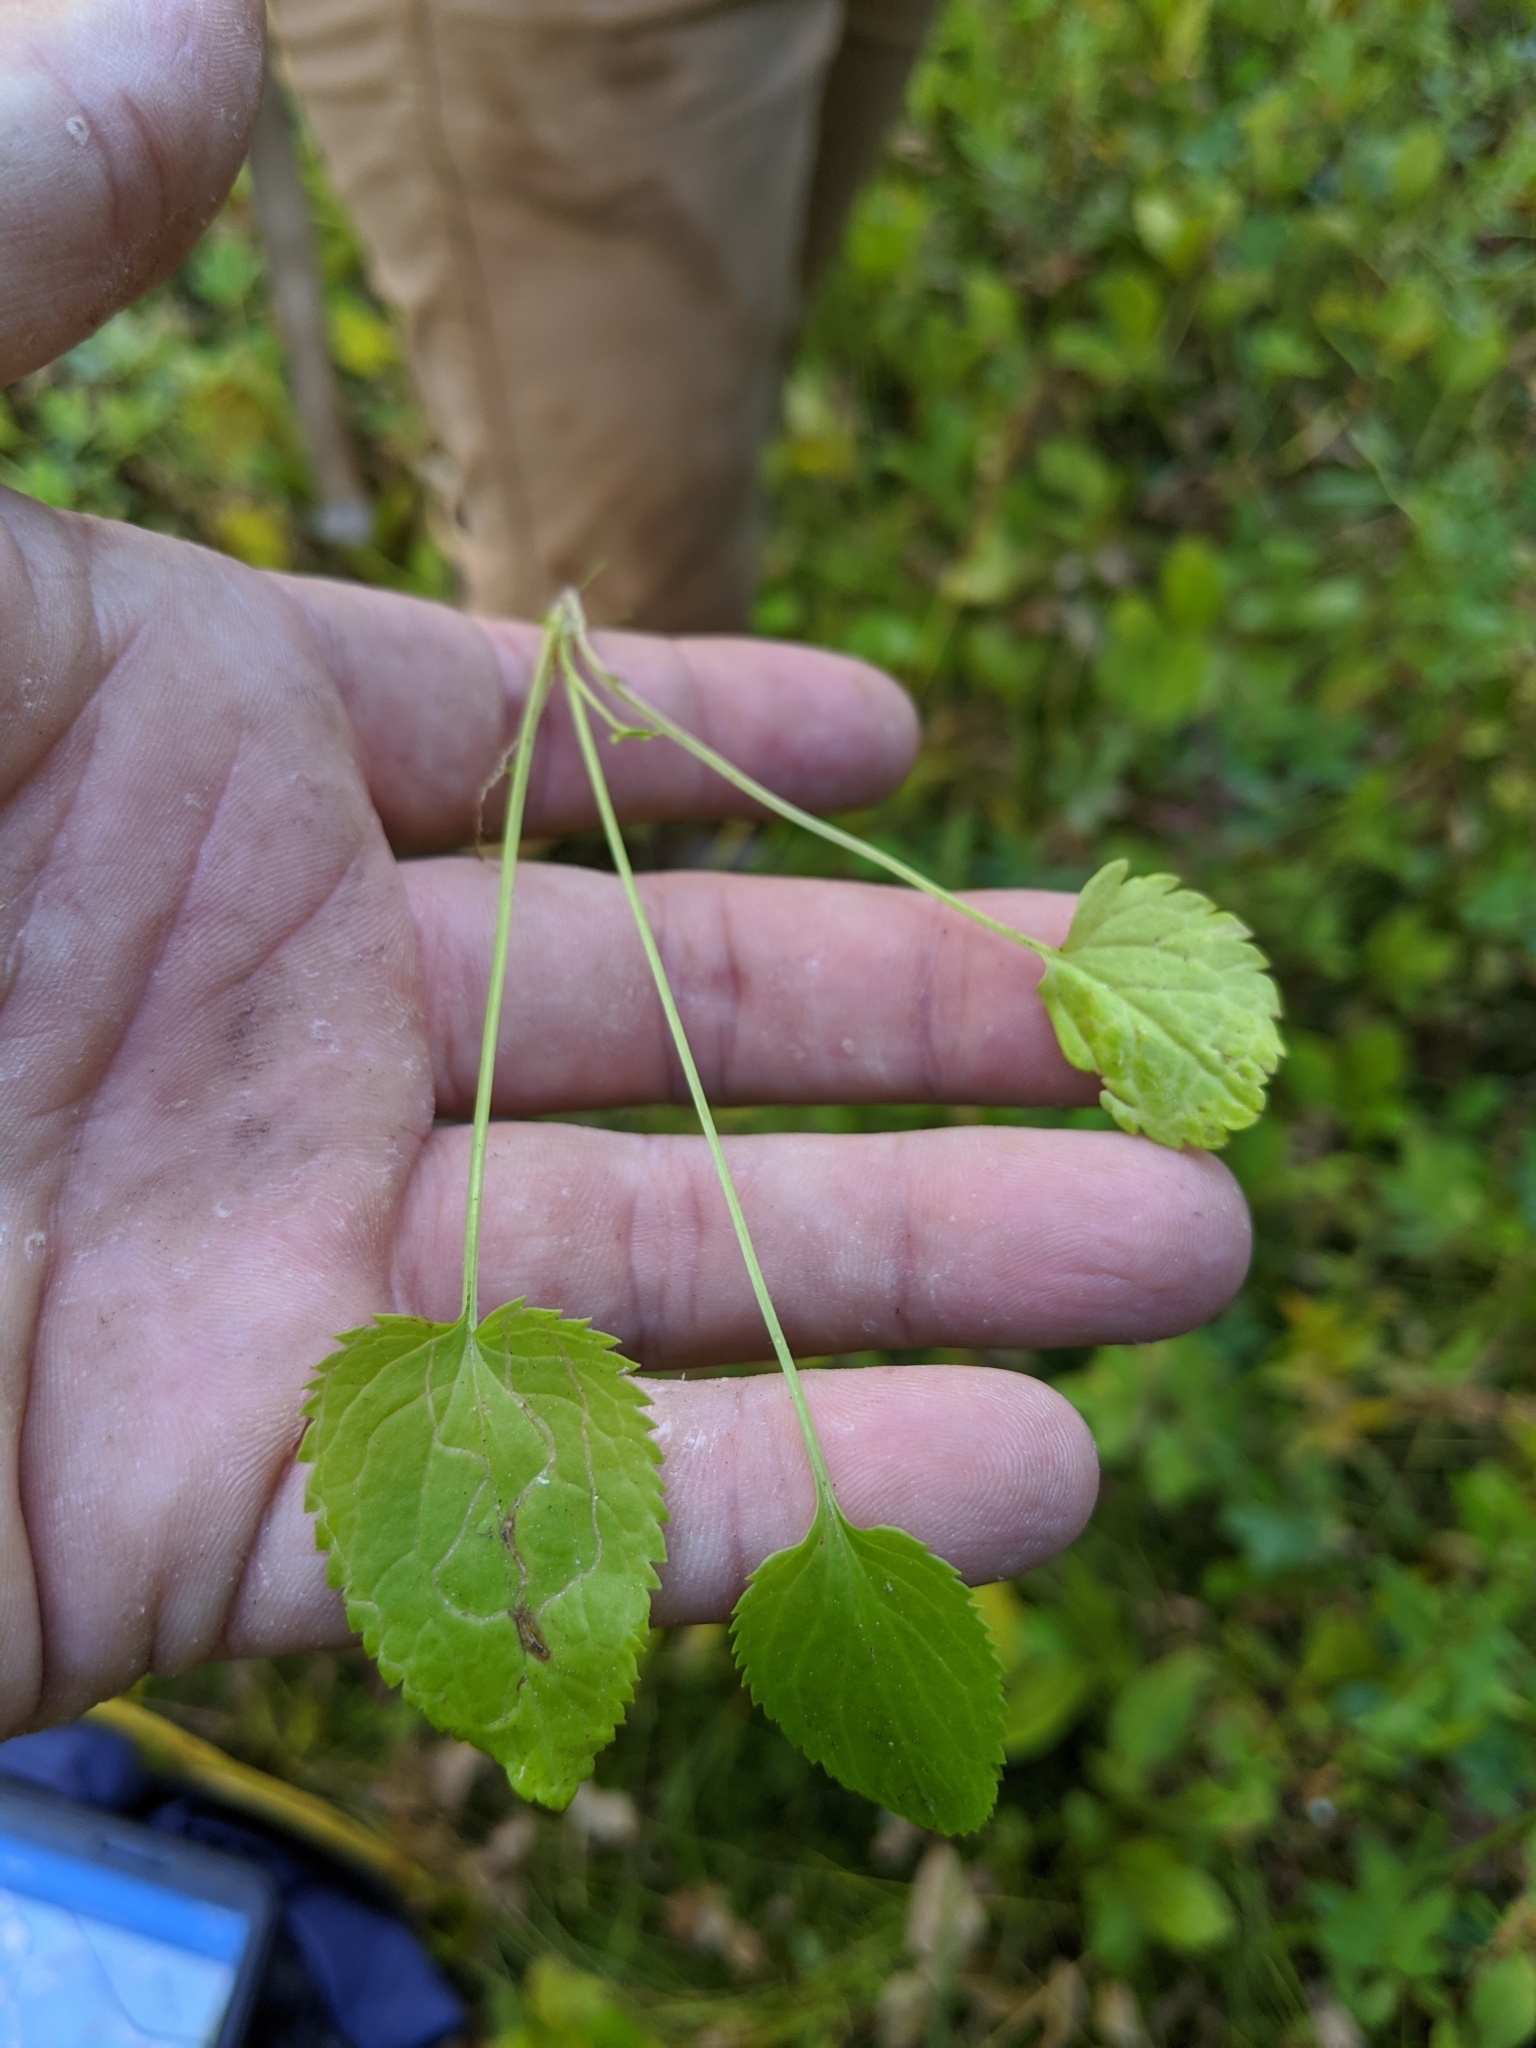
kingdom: Plantae
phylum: Tracheophyta
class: Magnoliopsida
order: Asterales
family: Asteraceae
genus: Packera
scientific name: Packera pseudaurea
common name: False-gold groundsel
